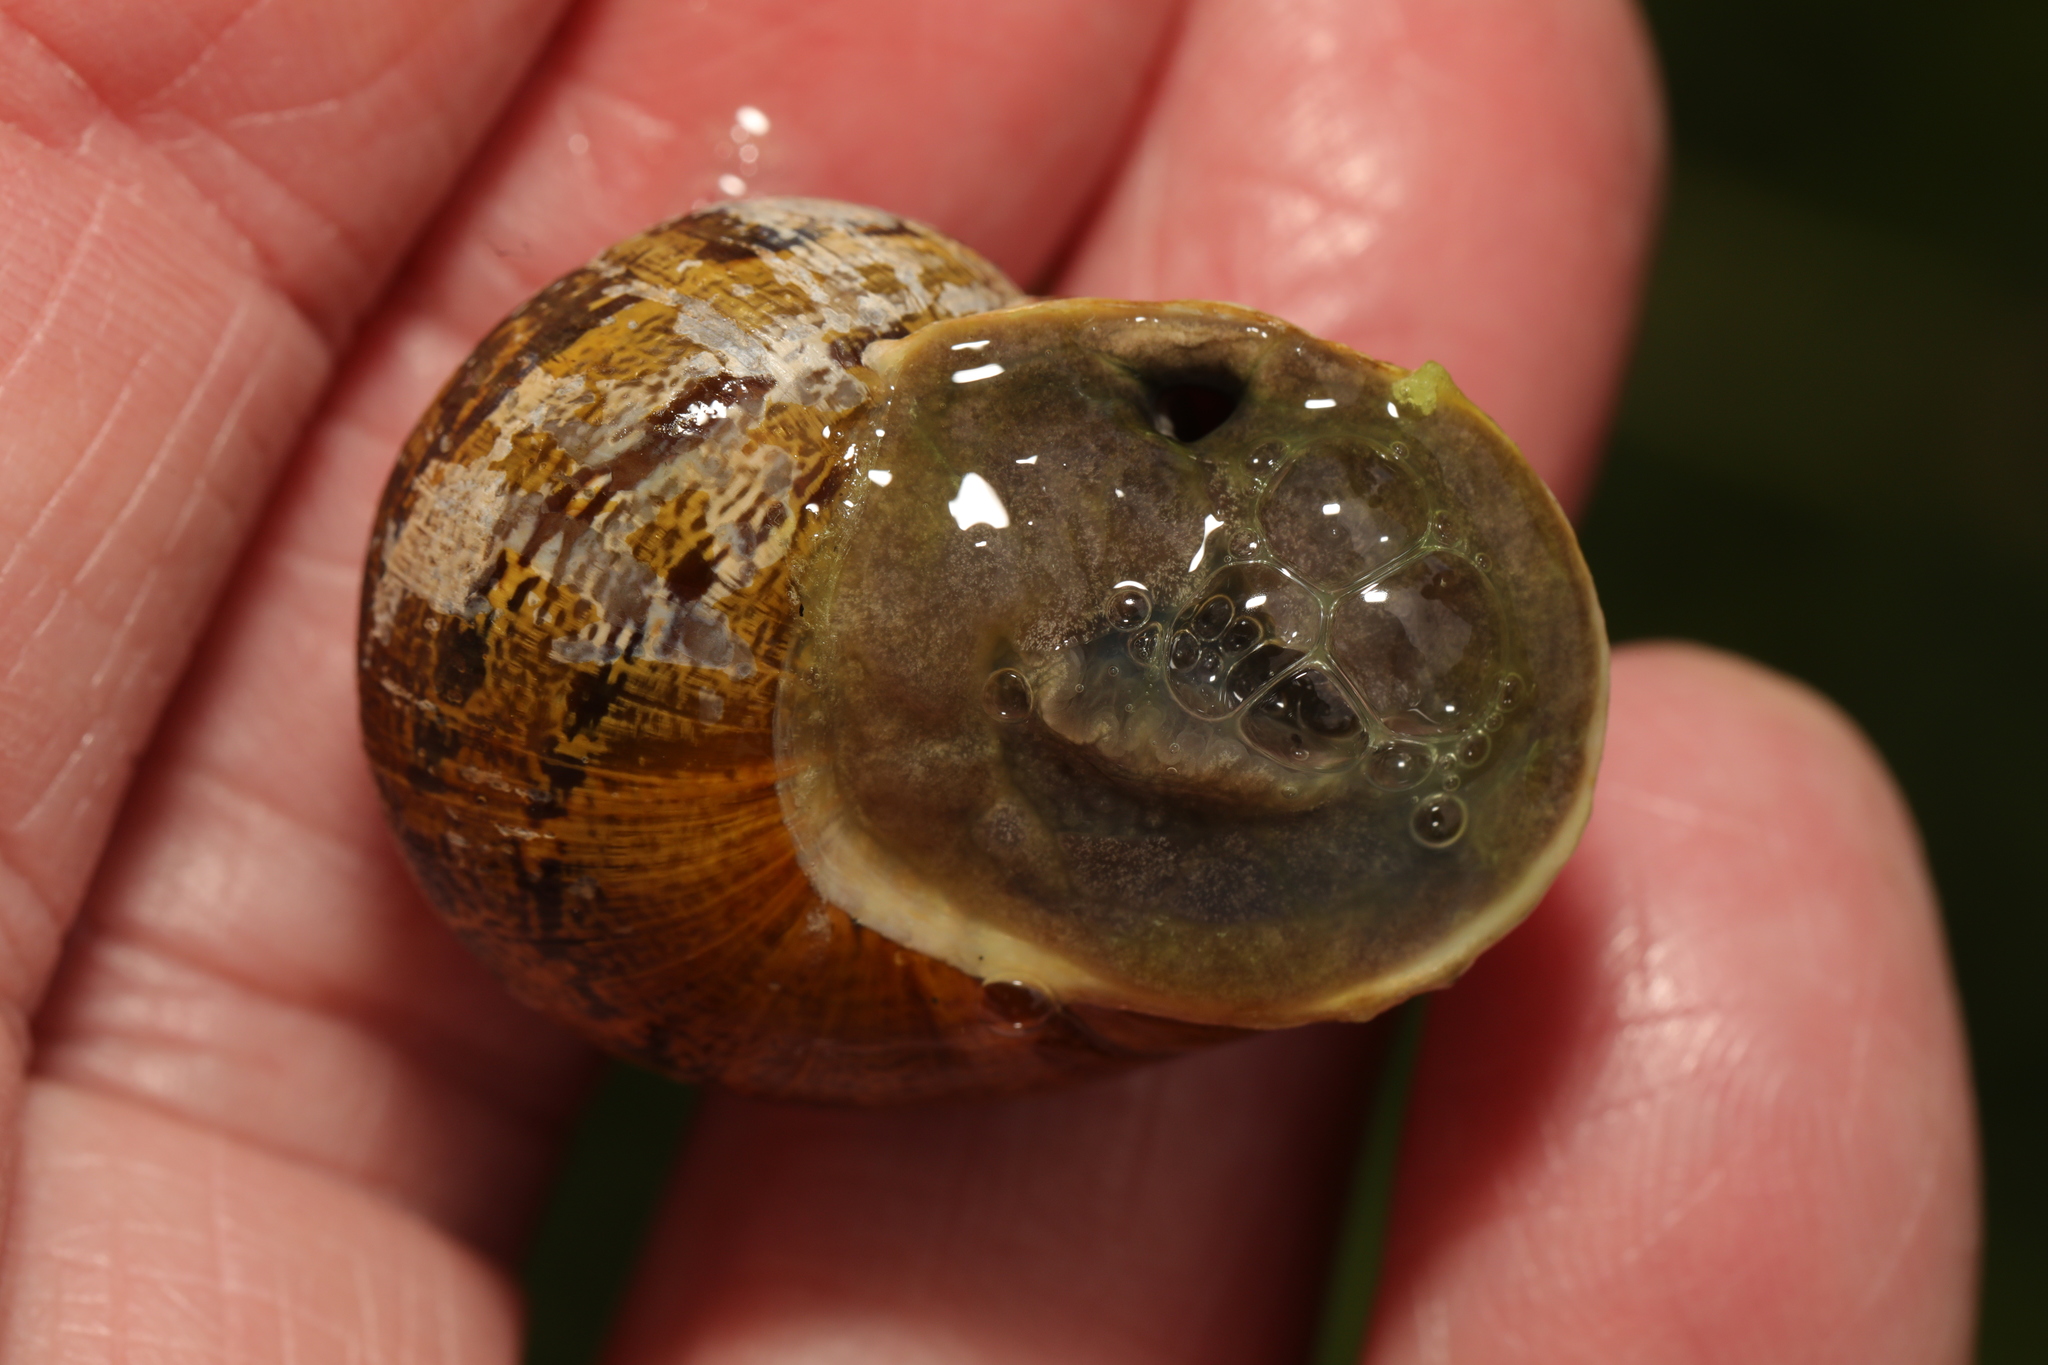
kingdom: Animalia
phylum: Mollusca
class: Gastropoda
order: Stylommatophora
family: Helicidae
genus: Cornu
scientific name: Cornu aspersum
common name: Brown garden snail
